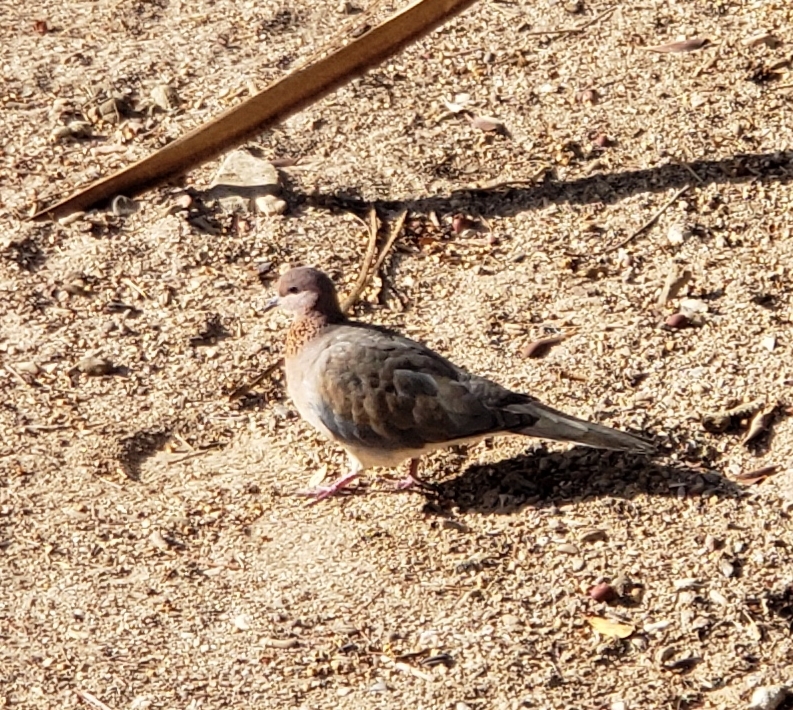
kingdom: Animalia
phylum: Chordata
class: Aves
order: Columbiformes
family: Columbidae
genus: Spilopelia
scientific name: Spilopelia senegalensis
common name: Laughing dove
